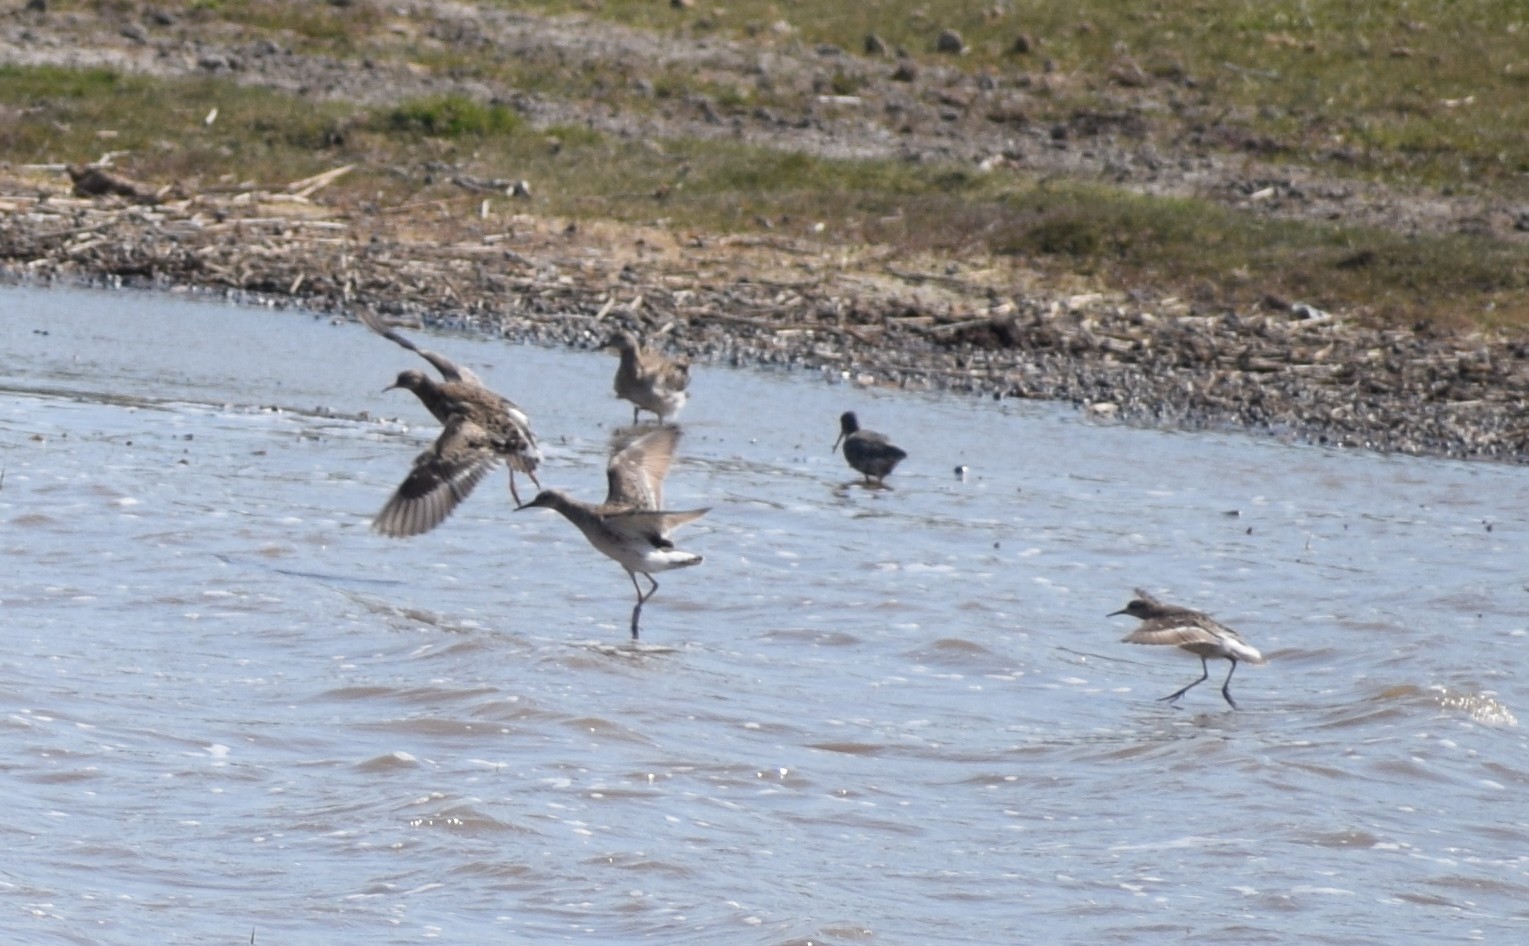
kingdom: Animalia
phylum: Chordata
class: Aves
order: Charadriiformes
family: Scolopacidae
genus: Calidris
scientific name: Calidris pugnax
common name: Ruff
